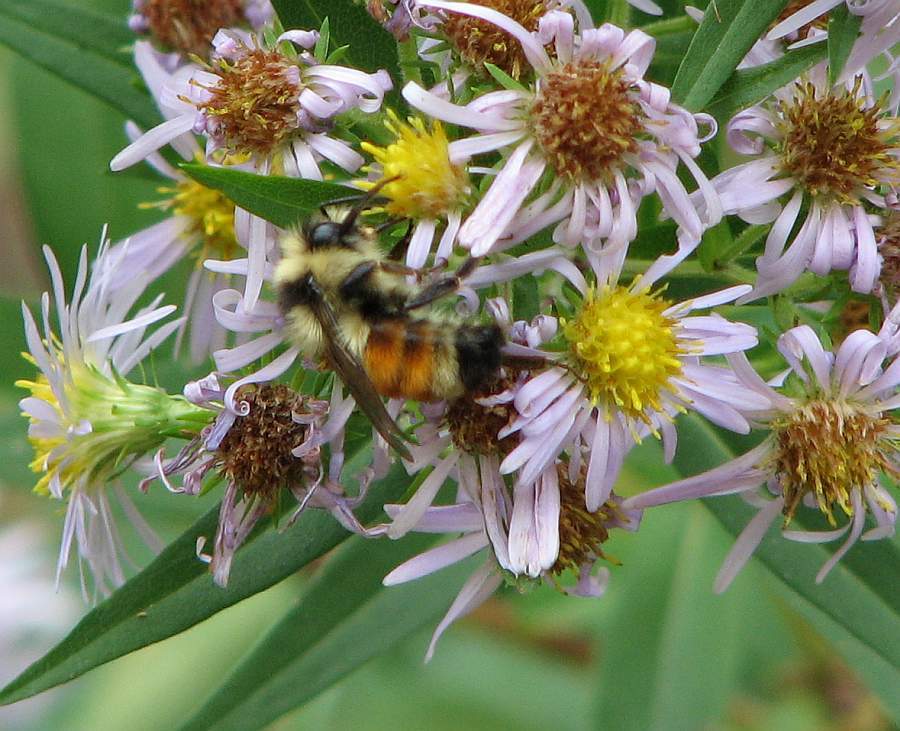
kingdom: Animalia
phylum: Arthropoda
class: Insecta
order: Hymenoptera
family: Apidae
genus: Bombus
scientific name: Bombus ternarius
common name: Tri-colored bumble bee
